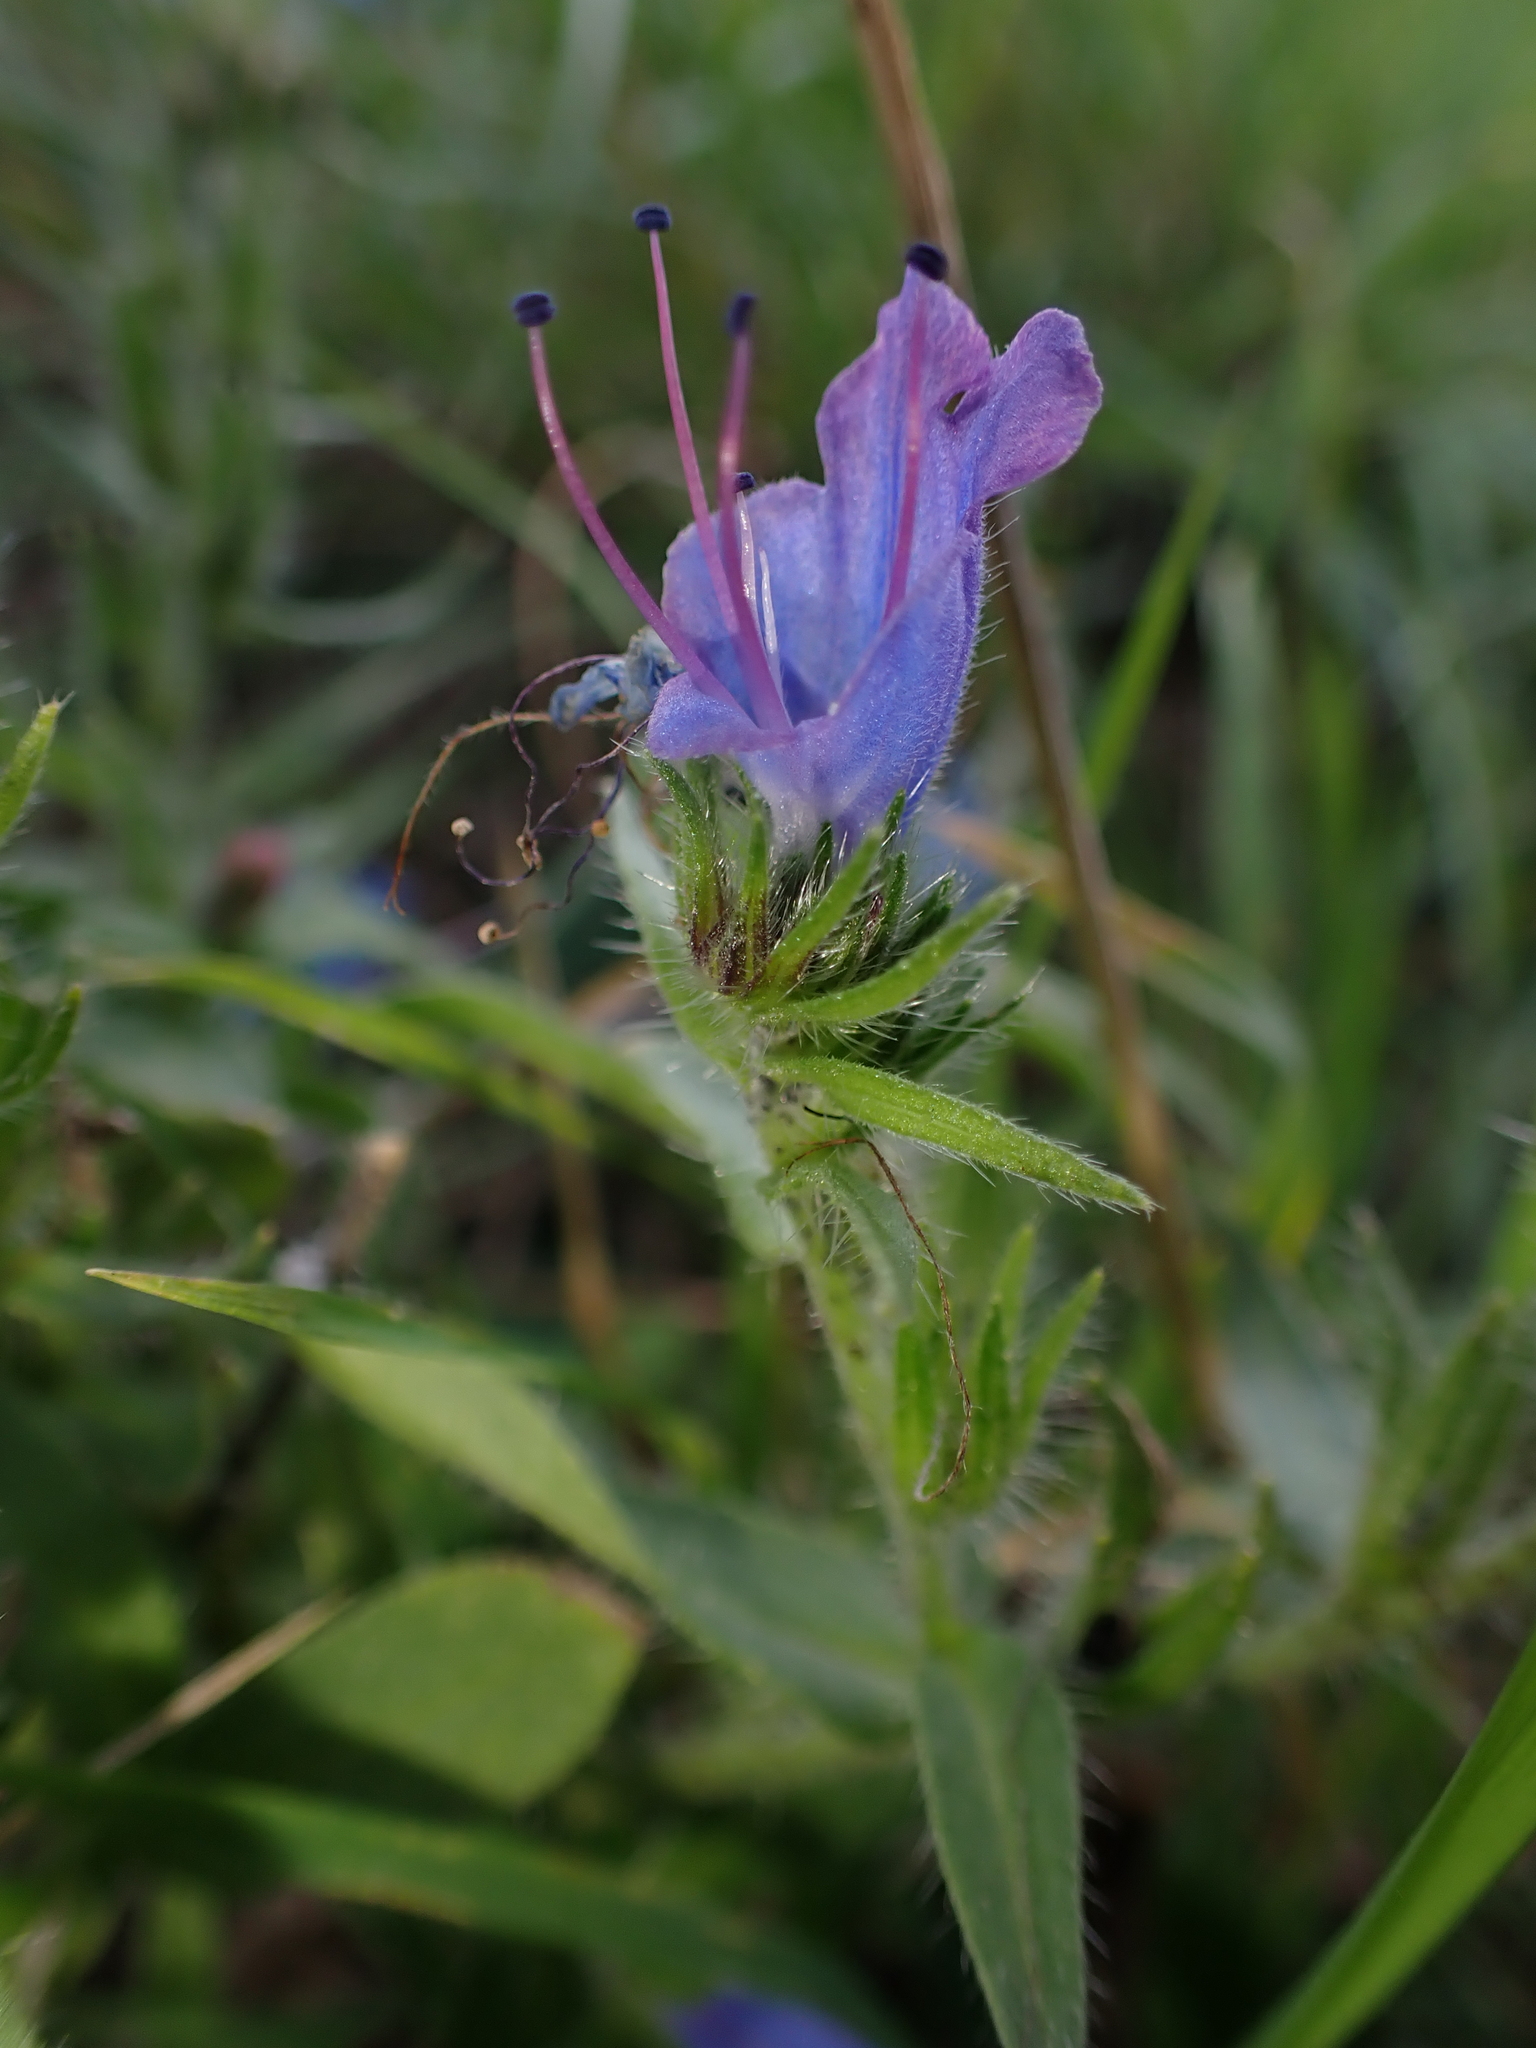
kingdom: Plantae
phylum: Tracheophyta
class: Magnoliopsida
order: Boraginales
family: Boraginaceae
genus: Echium
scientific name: Echium vulgare
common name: Common viper's bugloss
